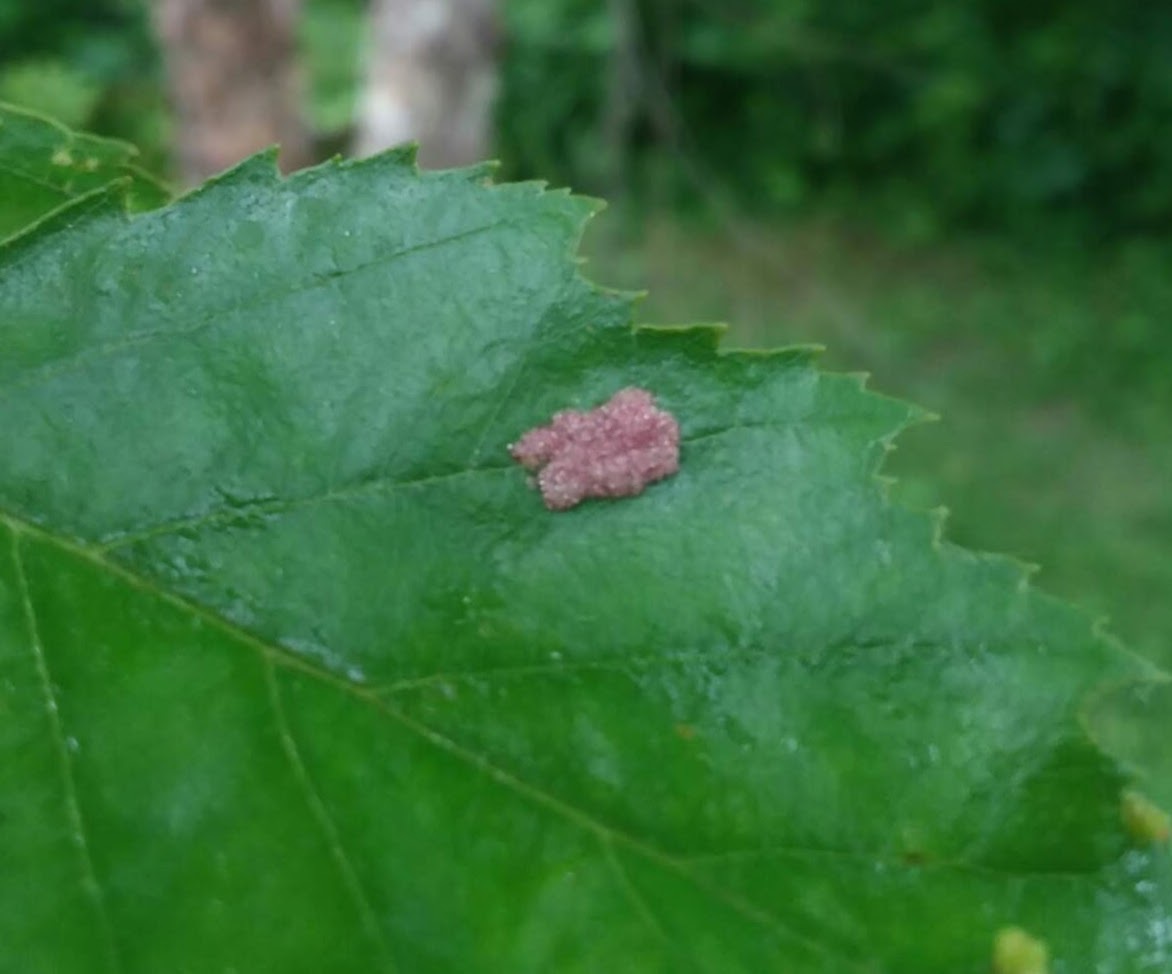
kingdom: Animalia
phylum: Arthropoda
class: Arachnida
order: Trombidiformes
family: Eriophyidae
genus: Acalitus
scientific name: Acalitus longisetosus
